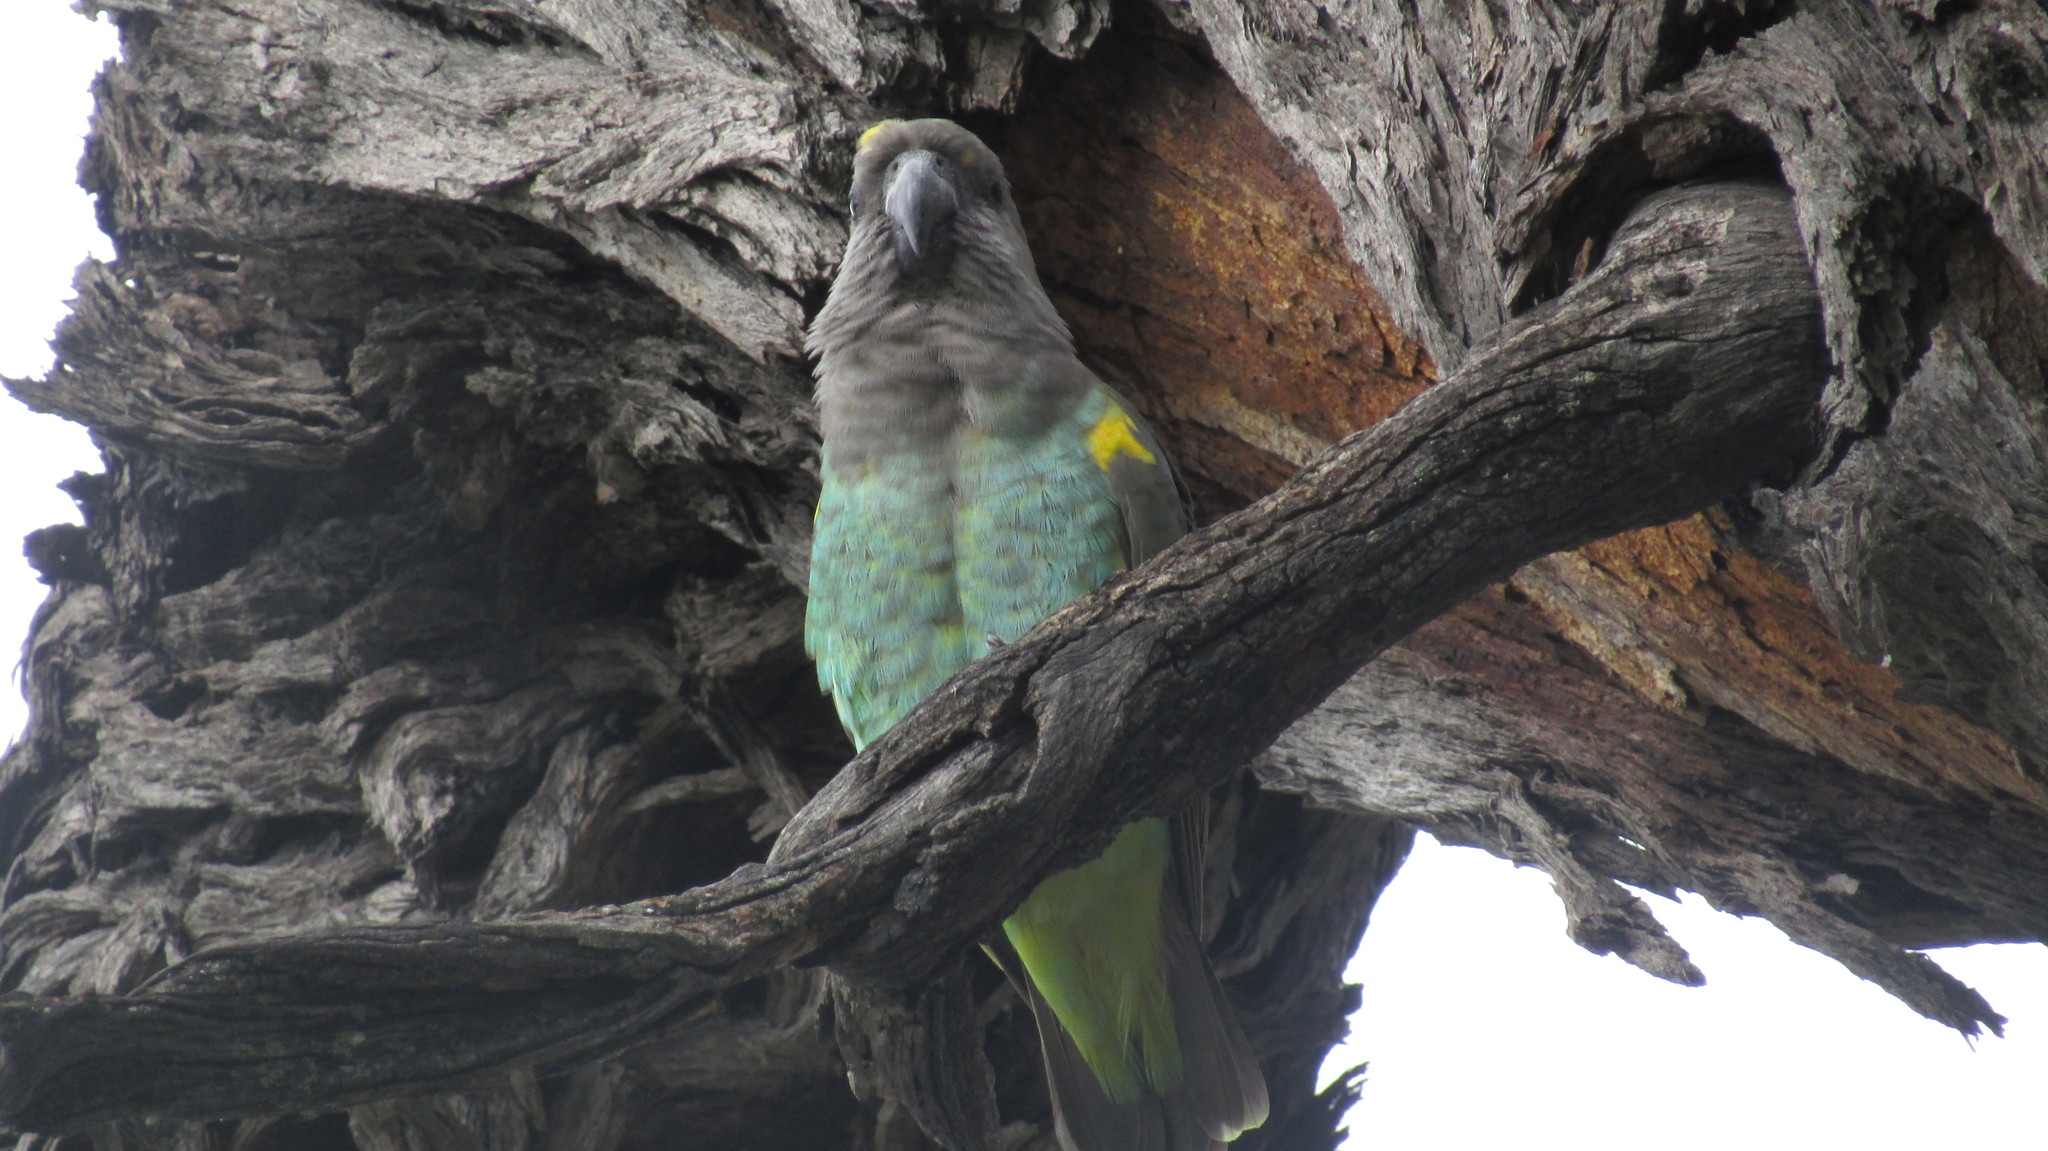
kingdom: Animalia
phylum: Chordata
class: Aves
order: Psittaciformes
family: Psittacidae
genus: Poicephalus
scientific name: Poicephalus meyeri
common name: Meyer's parrot
